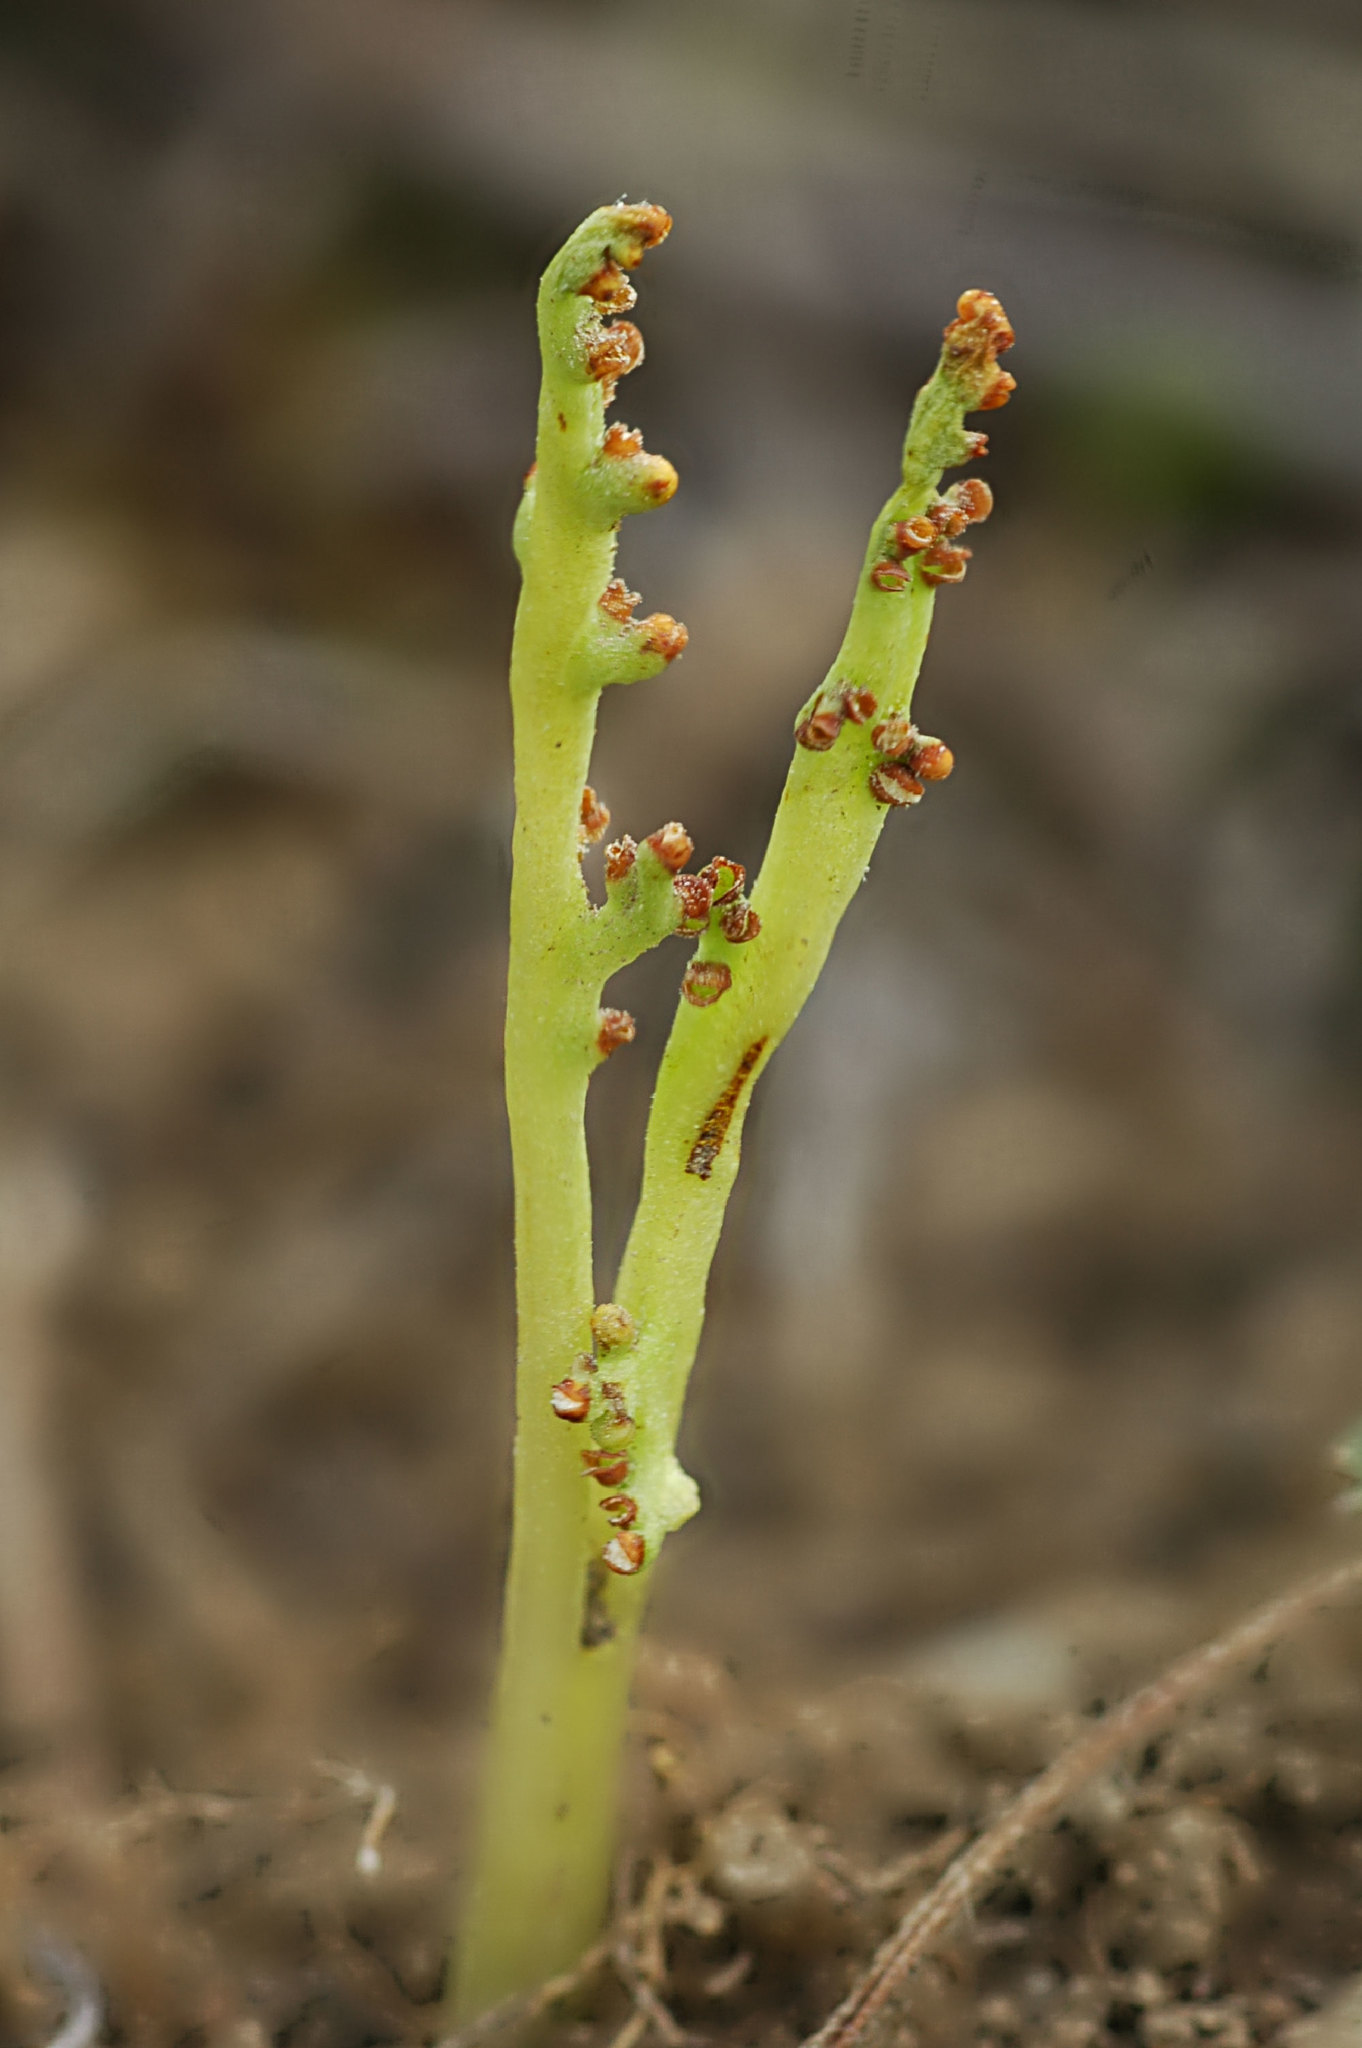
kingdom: Plantae
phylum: Tracheophyta
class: Polypodiopsida
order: Ophioglossales
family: Ophioglossaceae
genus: Botrychium
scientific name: Botrychium paradoxum
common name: Paradox moonwort
